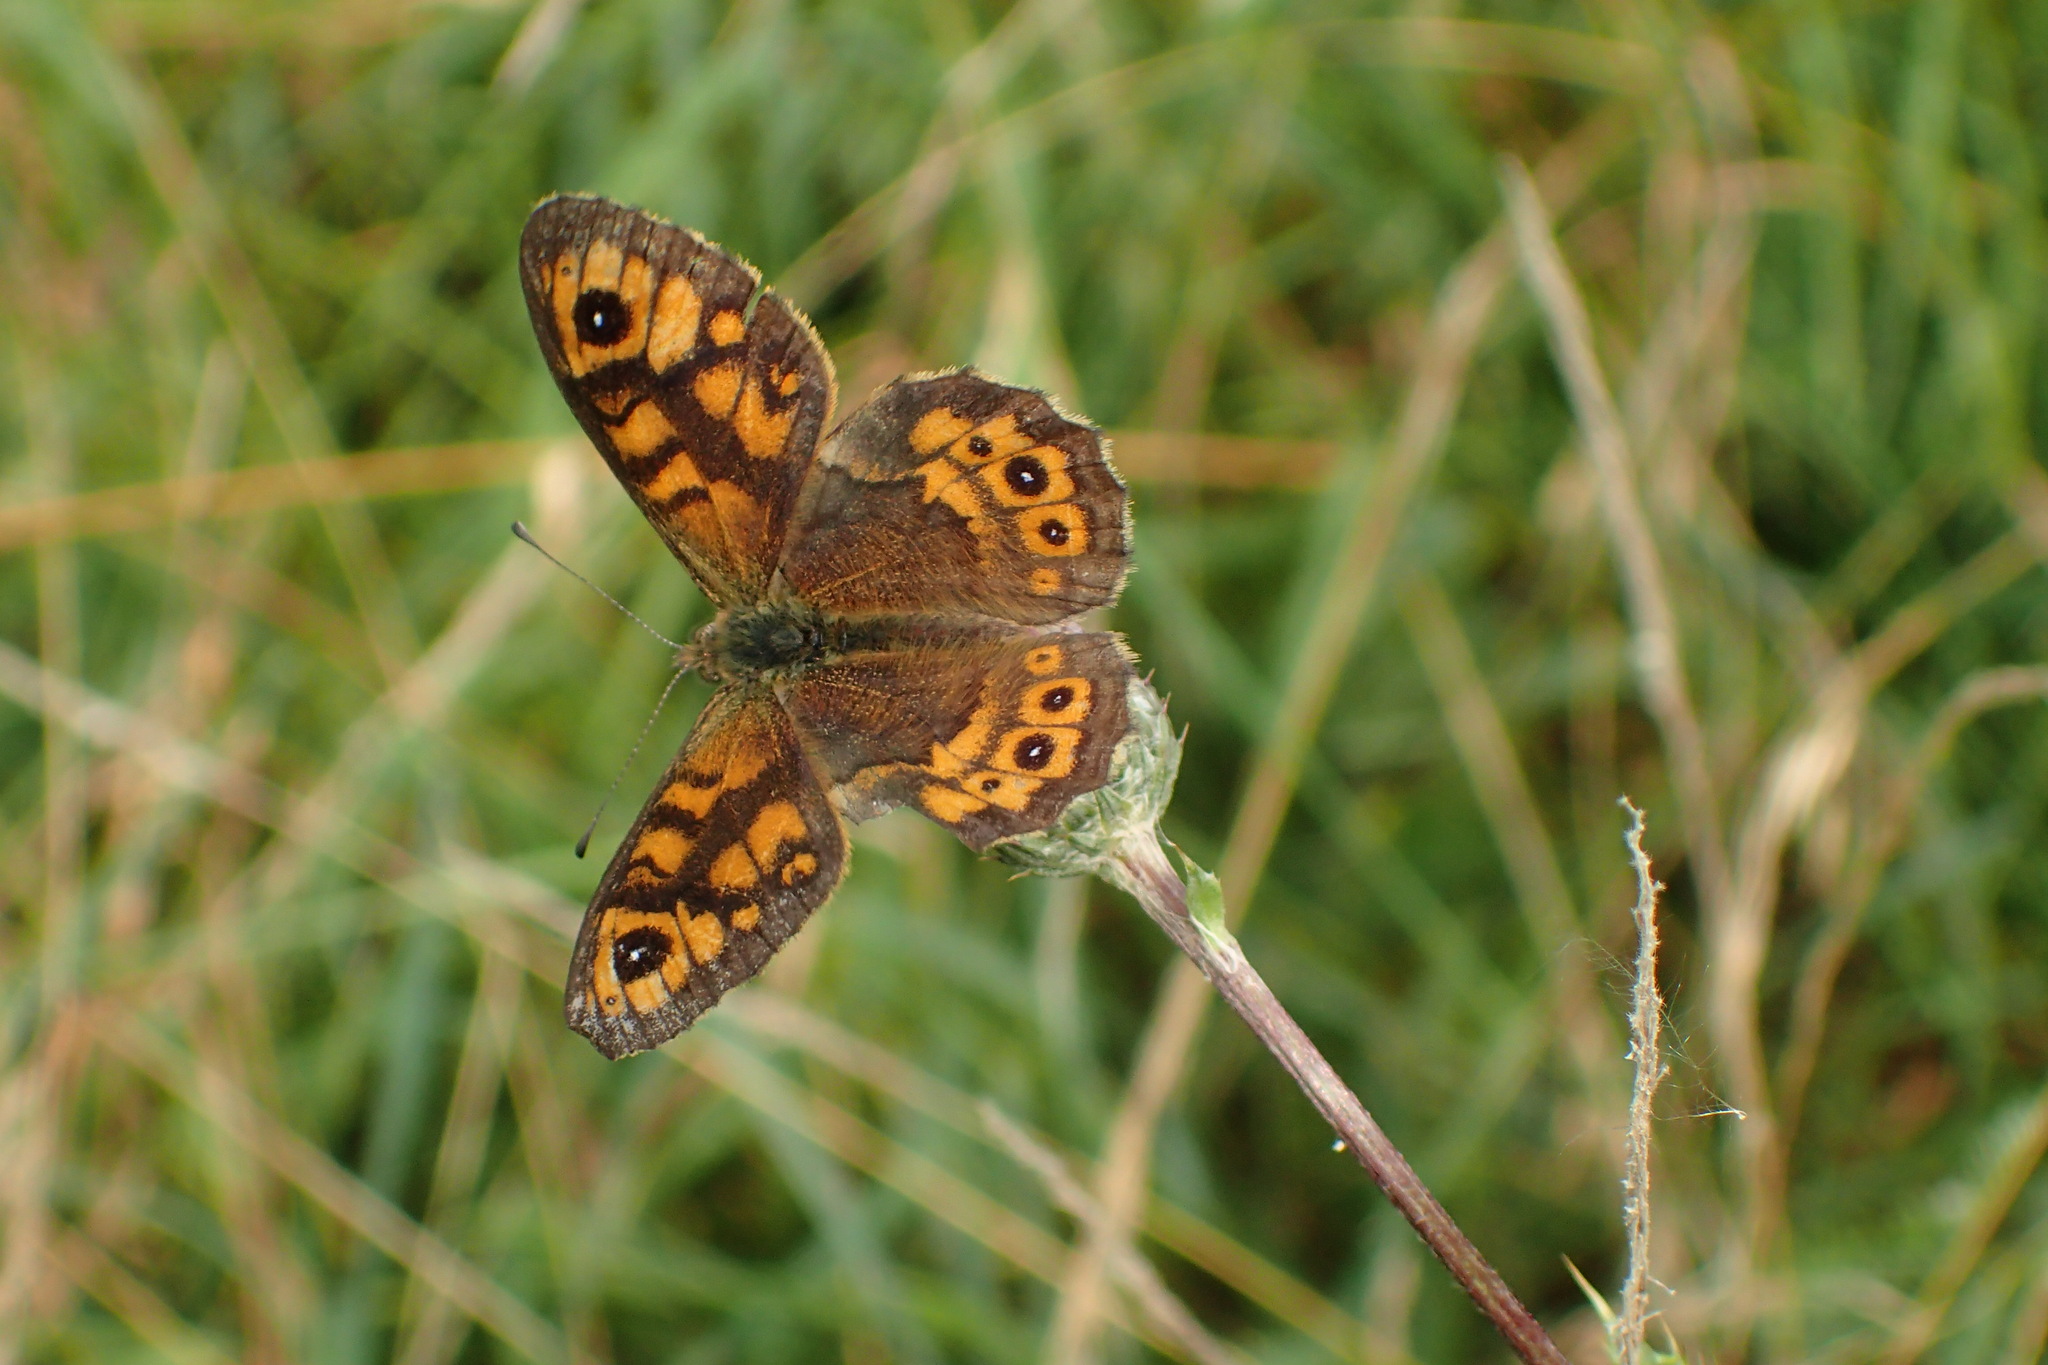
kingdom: Animalia
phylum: Arthropoda
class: Insecta
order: Lepidoptera
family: Nymphalidae
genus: Pararge
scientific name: Pararge Lasiommata megera
